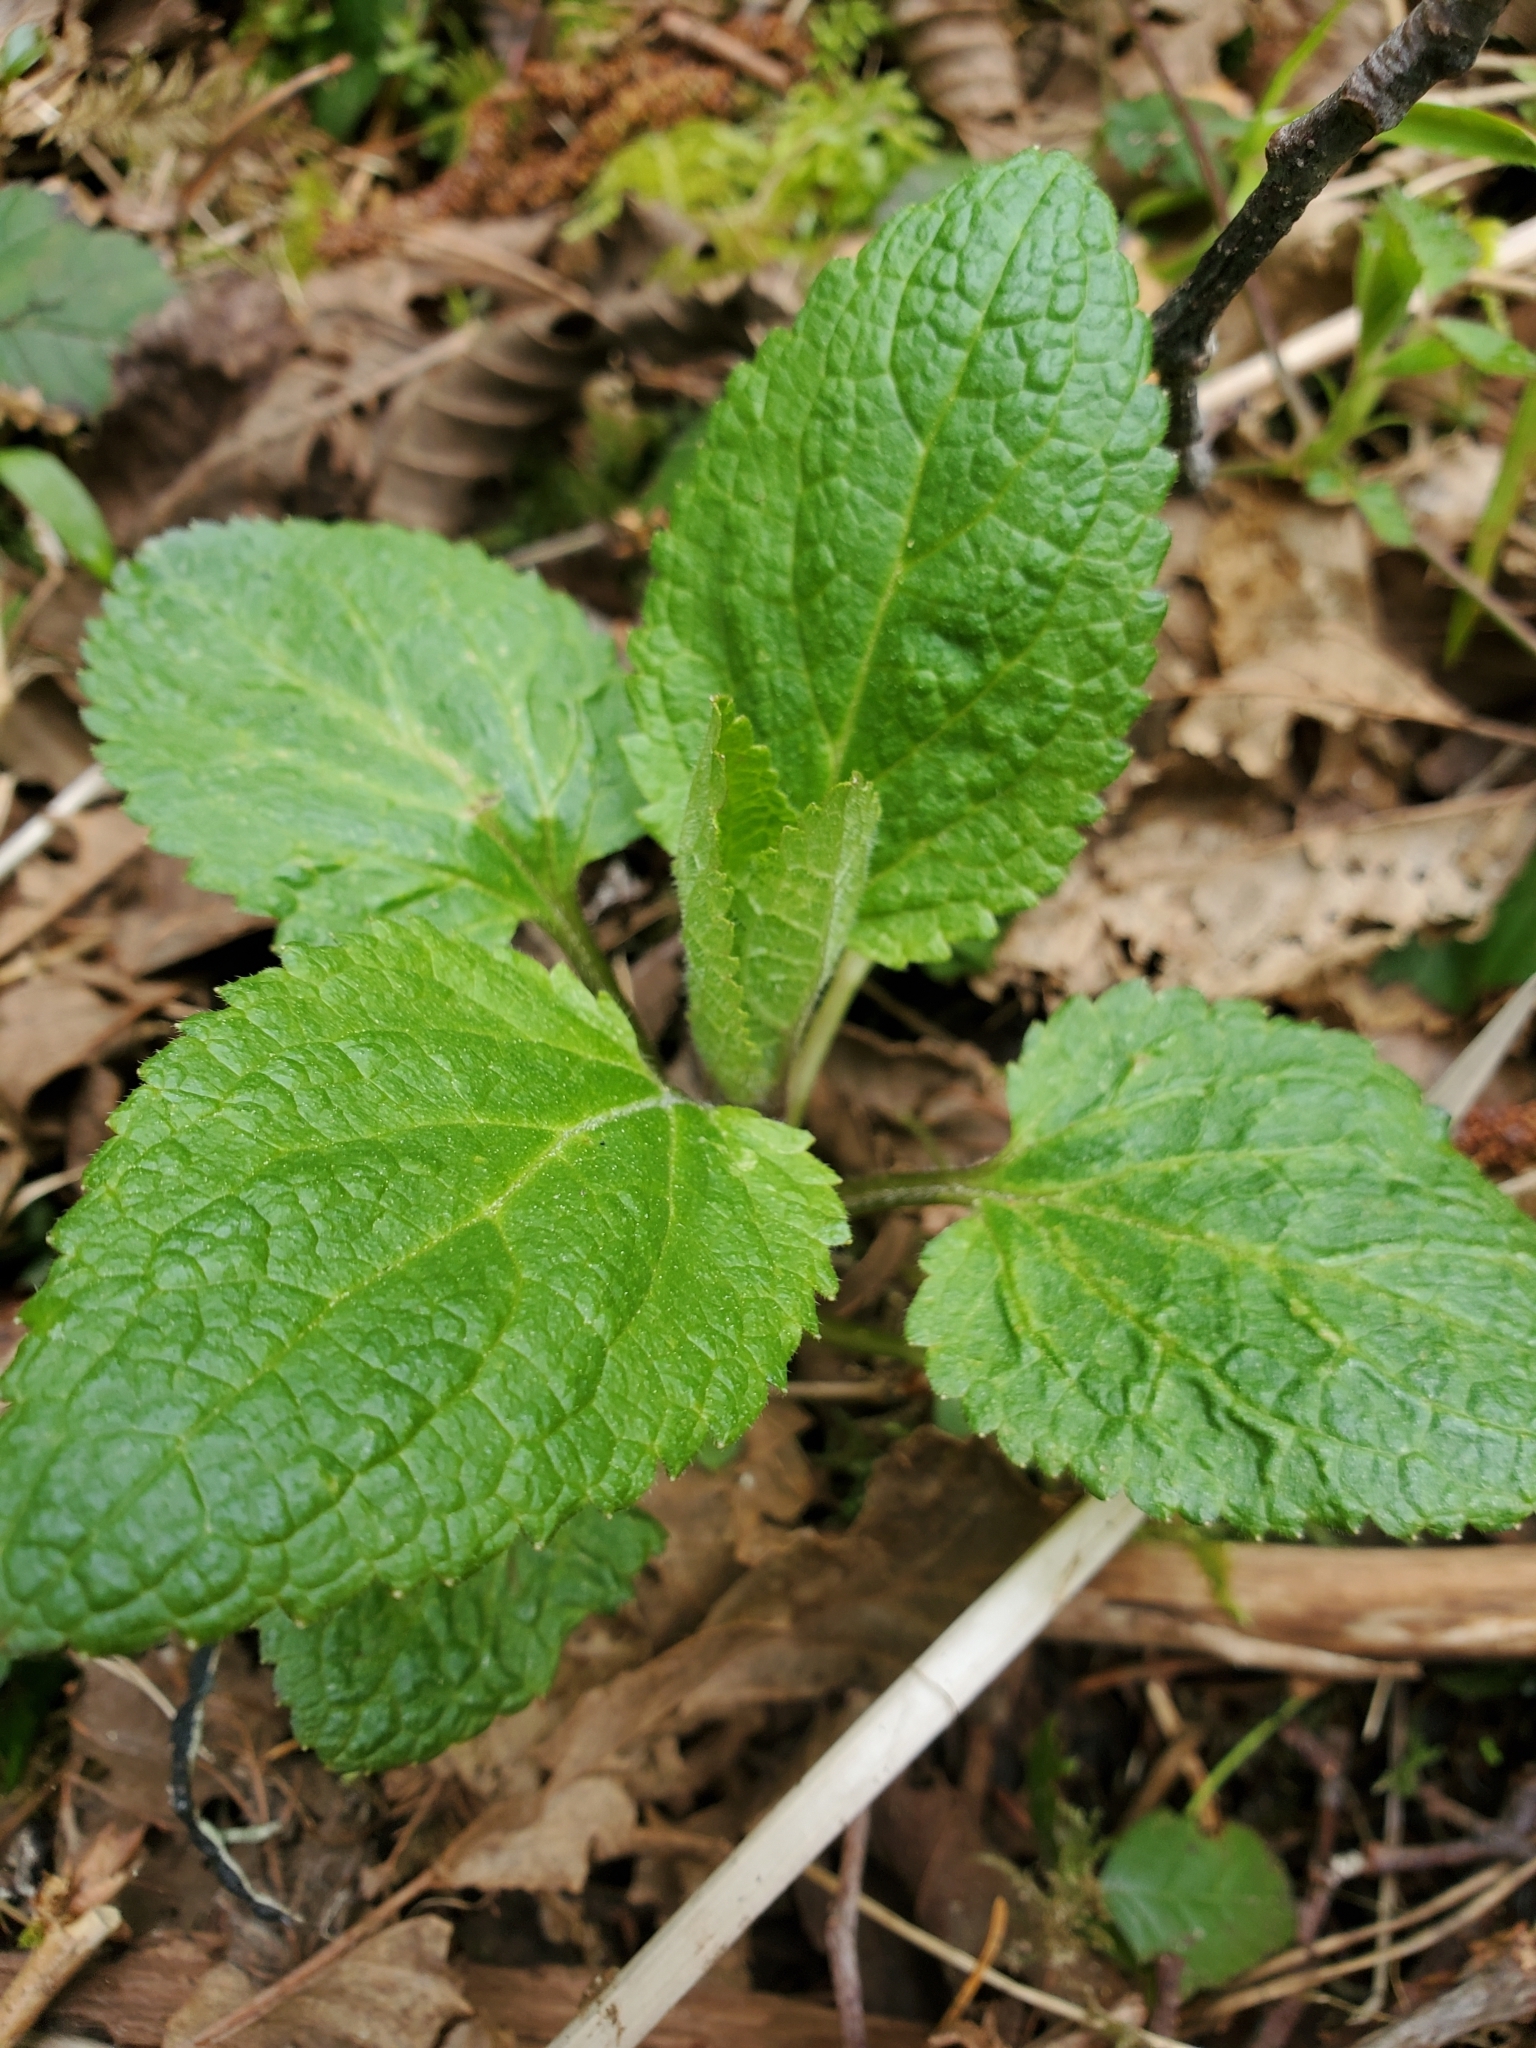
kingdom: Plantae
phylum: Tracheophyta
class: Magnoliopsida
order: Lamiales
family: Lamiaceae
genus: Stachys
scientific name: Stachys chamissonis
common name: Coastal hedge-nettle
